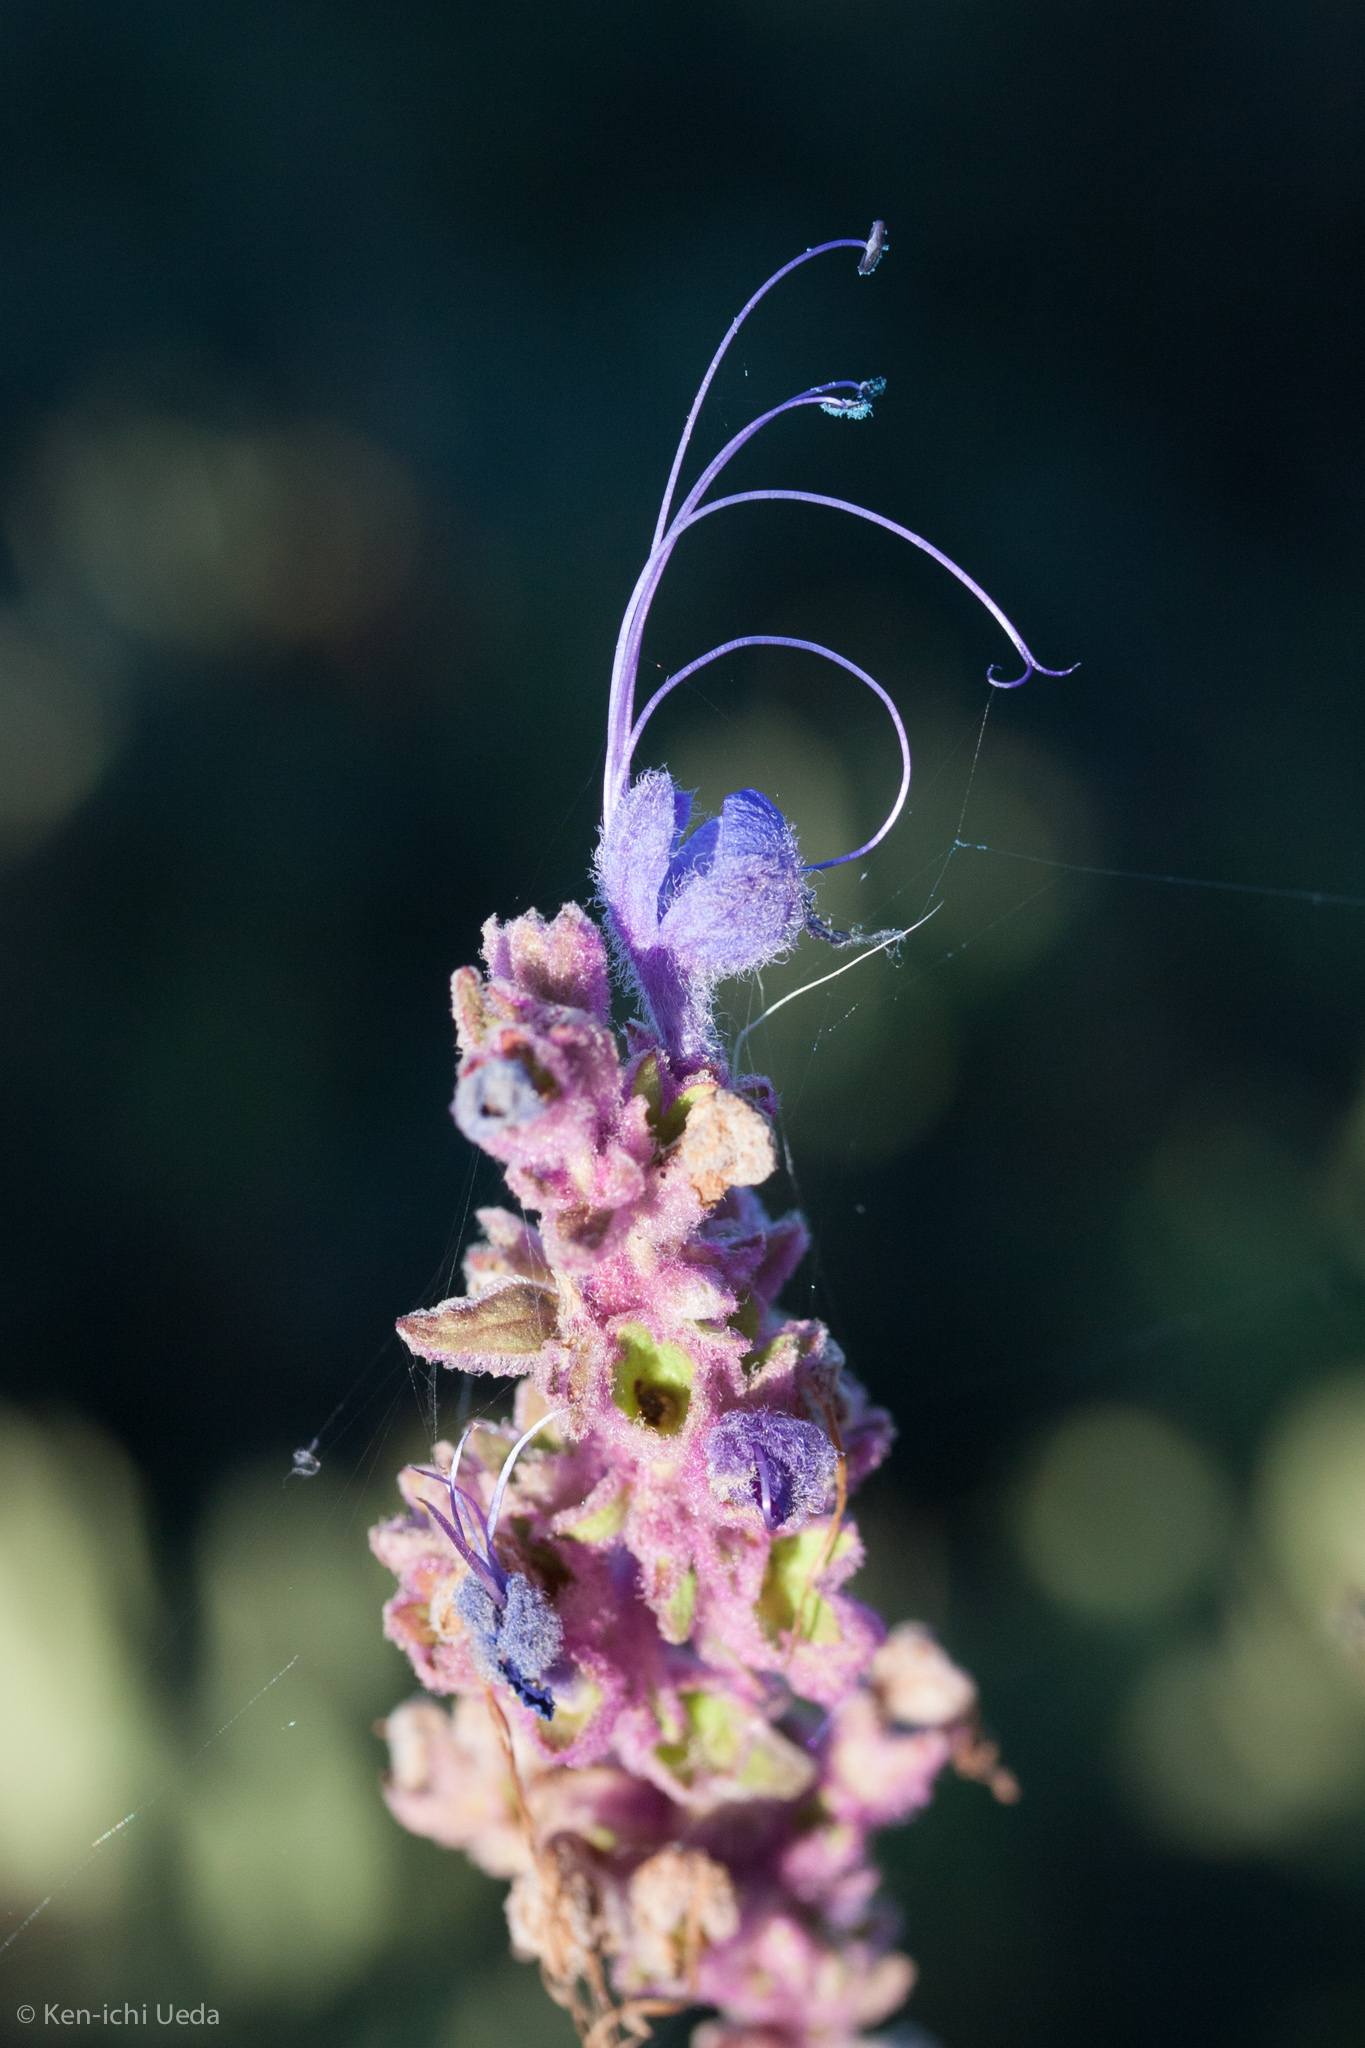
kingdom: Plantae
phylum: Tracheophyta
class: Magnoliopsida
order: Lamiales
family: Lamiaceae
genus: Trichostema
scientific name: Trichostema lanatum
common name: Woolly bluecurls
